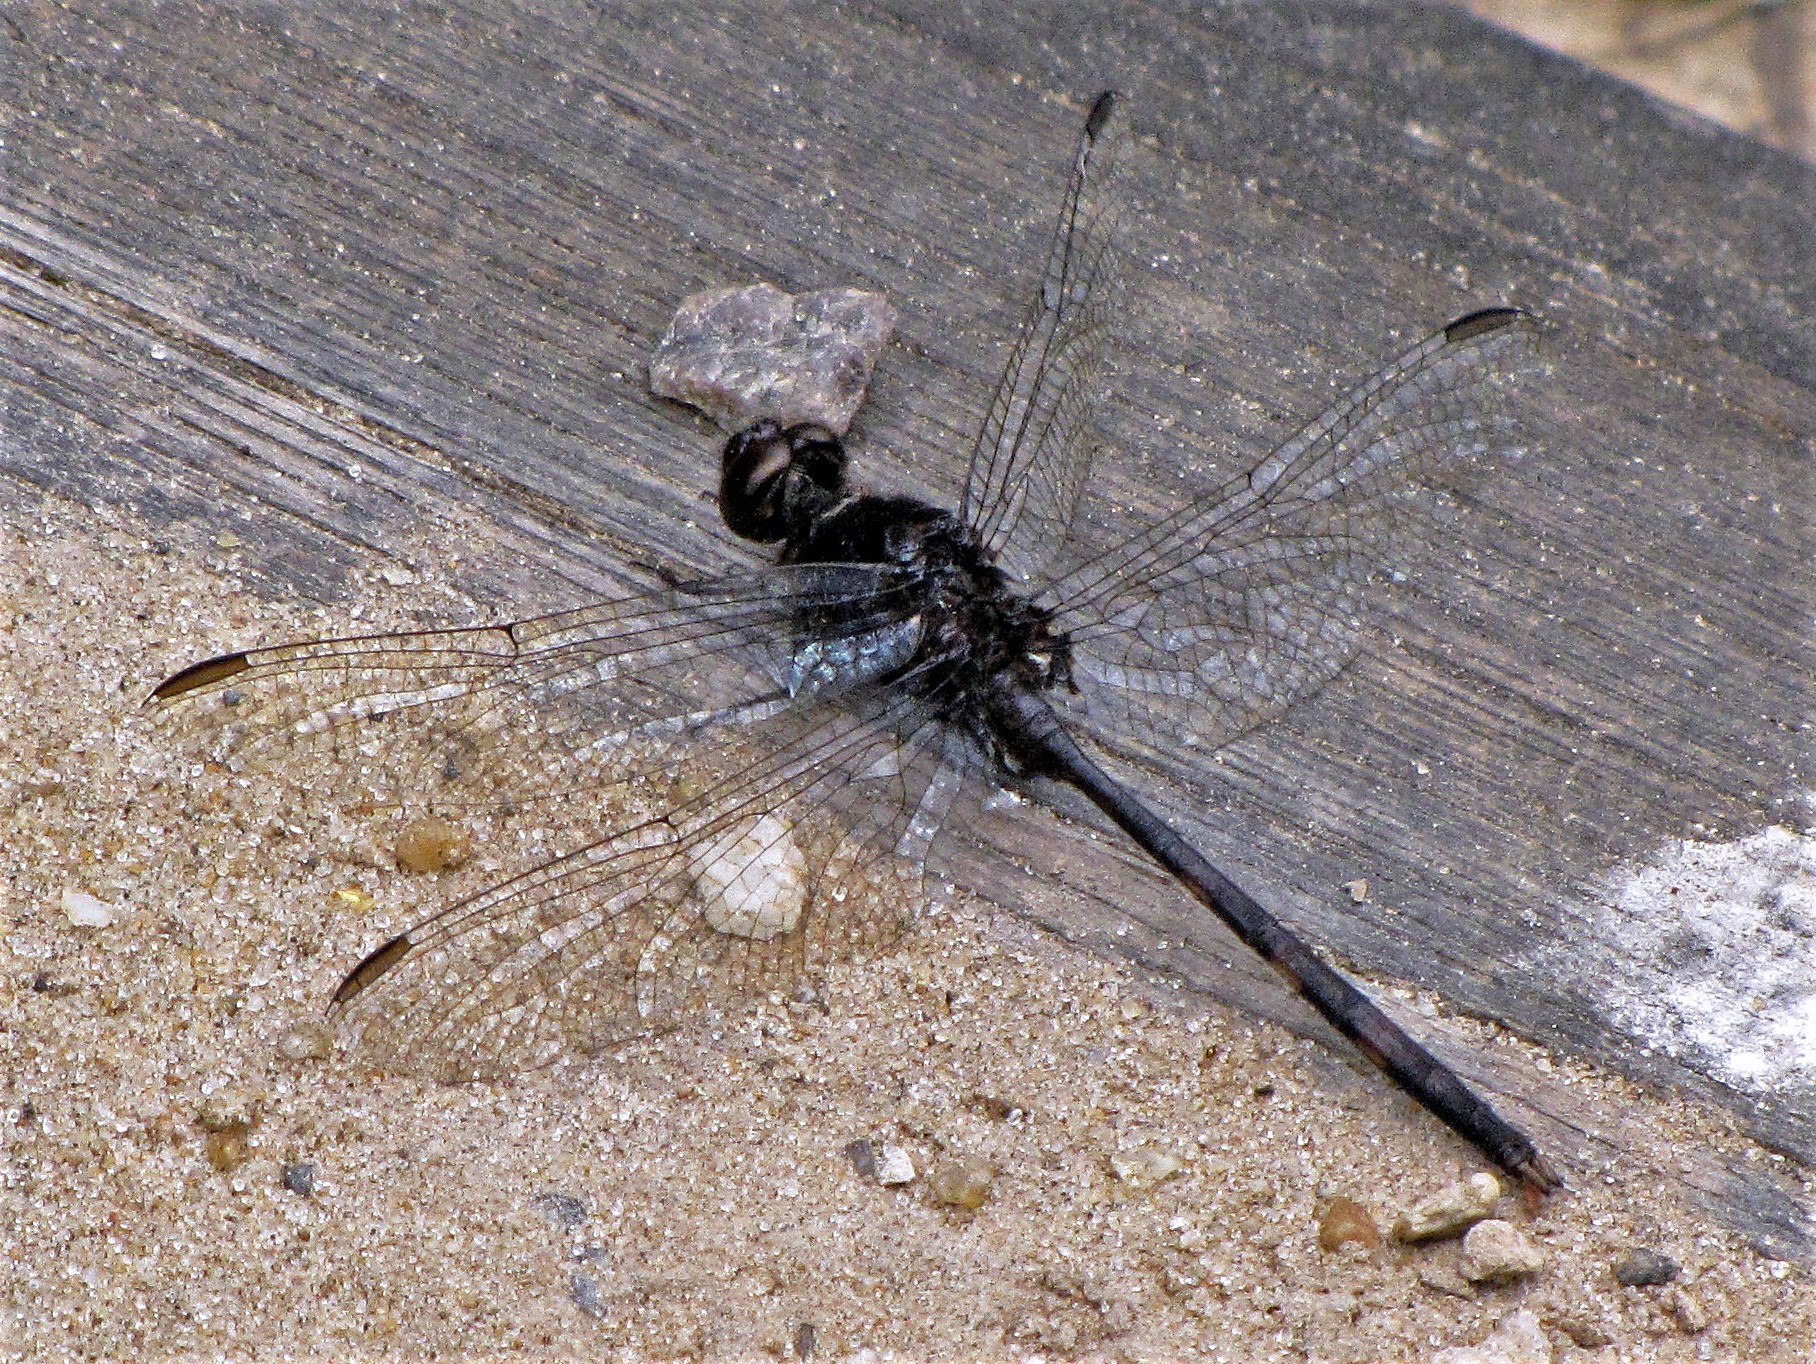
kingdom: Animalia
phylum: Arthropoda
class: Insecta
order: Odonata
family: Libellulidae
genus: Erythemis
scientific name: Erythemis plebeja
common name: Pin-tailed pondhawk
